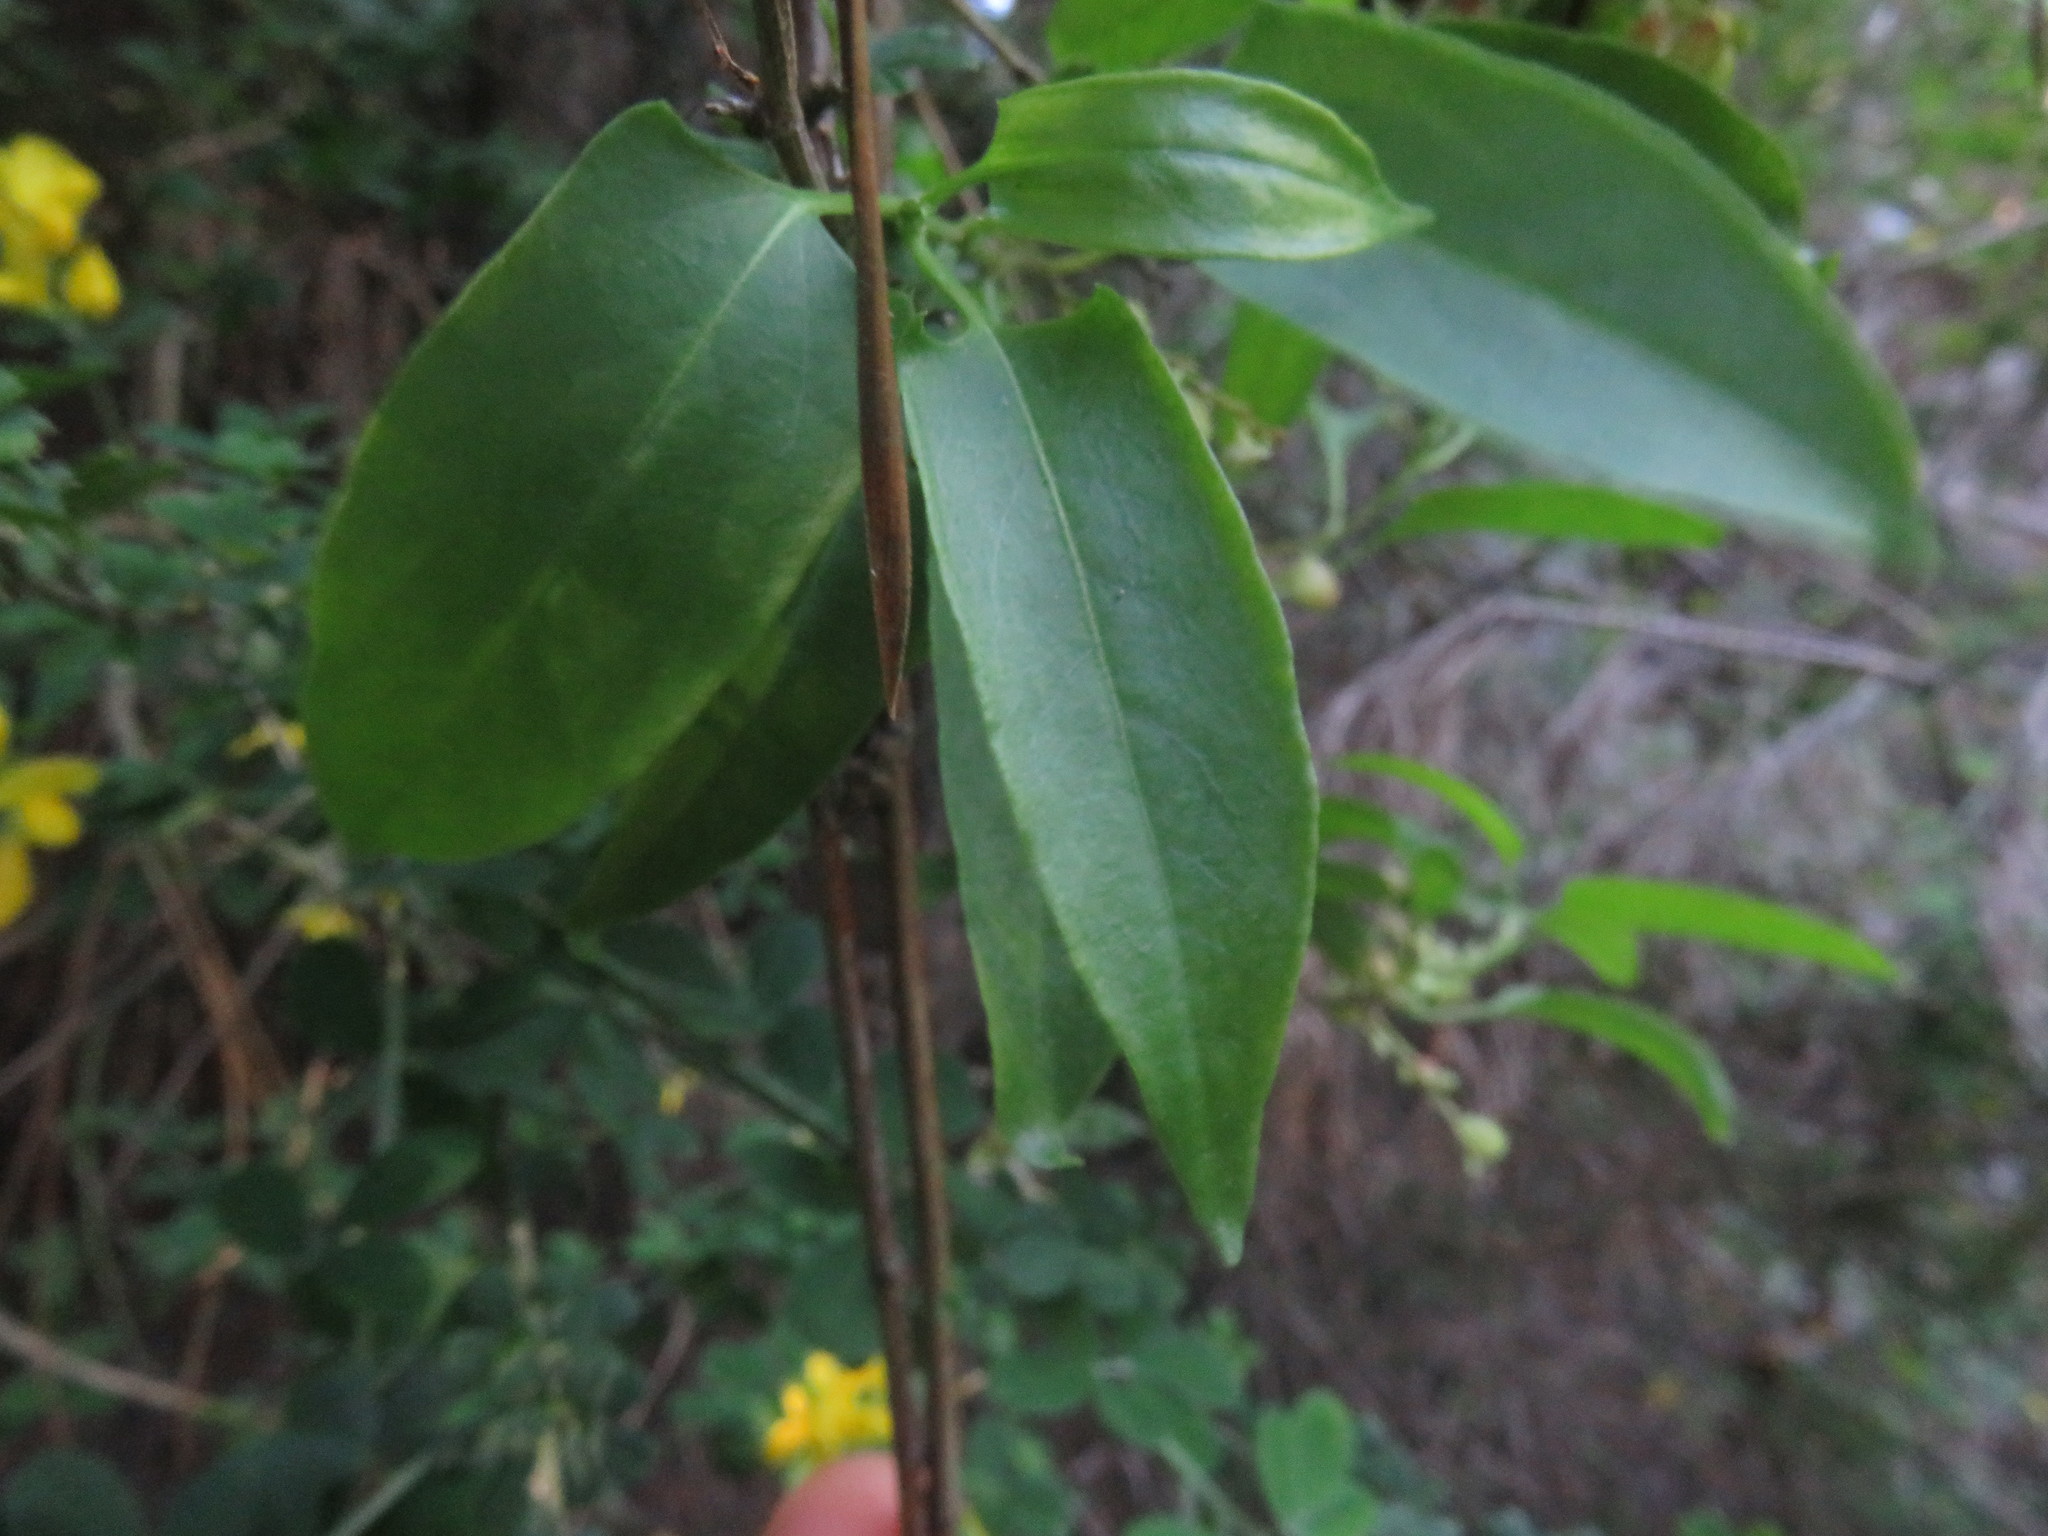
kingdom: Plantae
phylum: Tracheophyta
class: Magnoliopsida
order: Caryophyllales
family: Polygonaceae
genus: Muehlenbeckia
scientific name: Muehlenbeckia hastulata
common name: Wirevine
